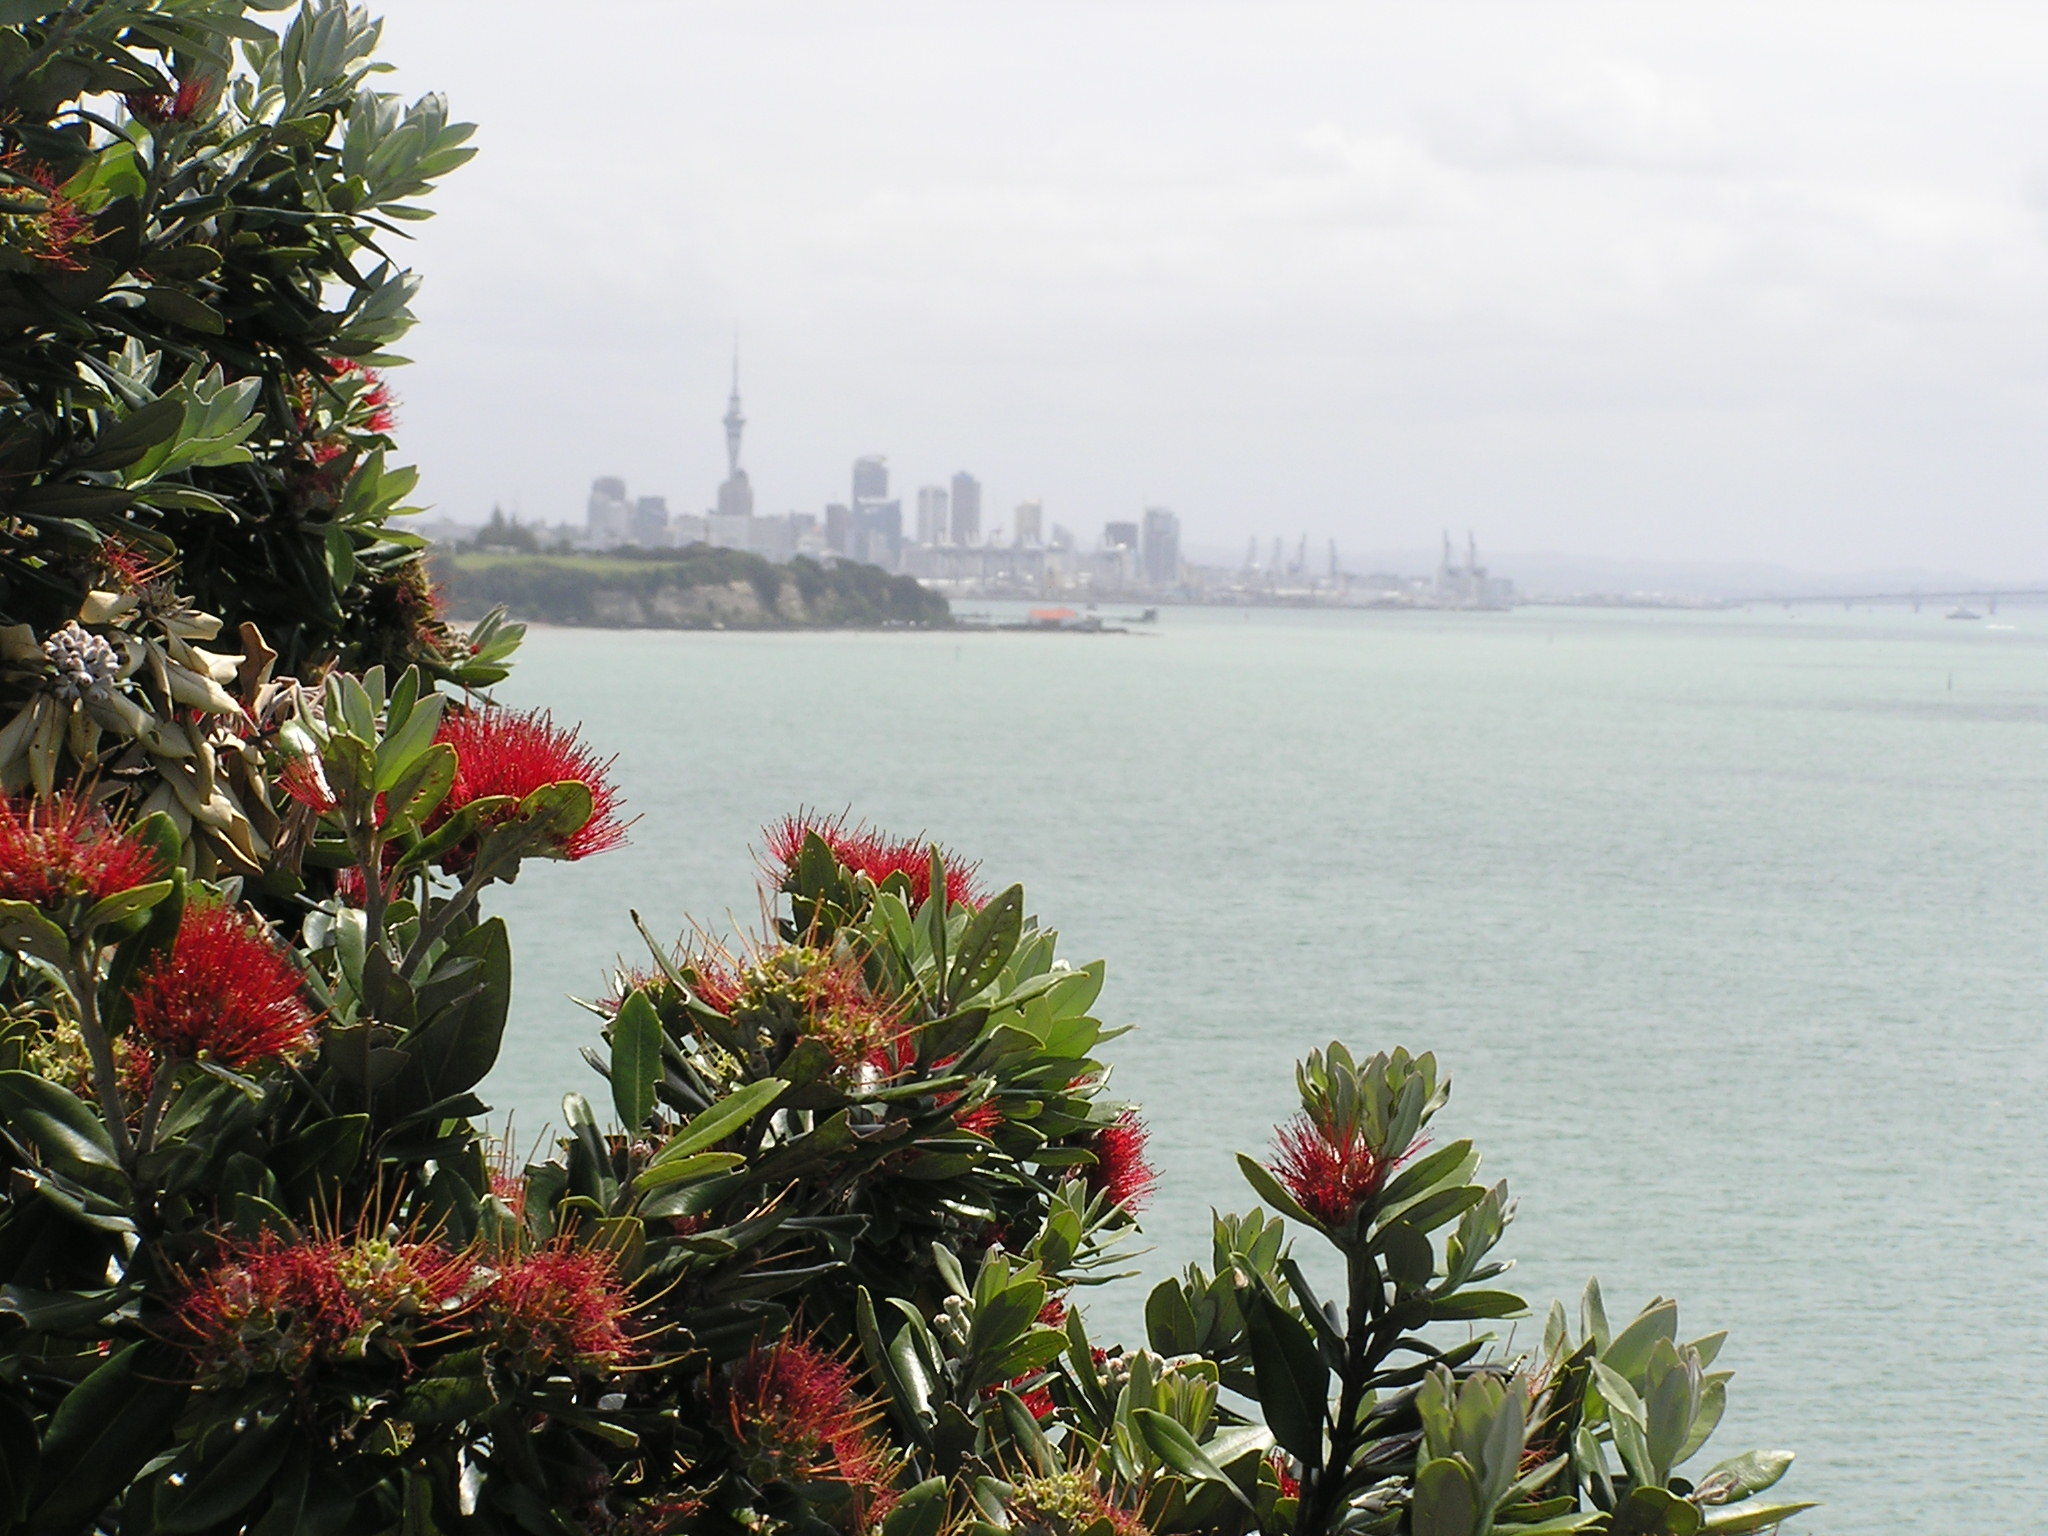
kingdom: Plantae
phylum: Tracheophyta
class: Magnoliopsida
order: Myrtales
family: Myrtaceae
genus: Metrosideros
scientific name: Metrosideros excelsa
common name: New zealand christmastree
